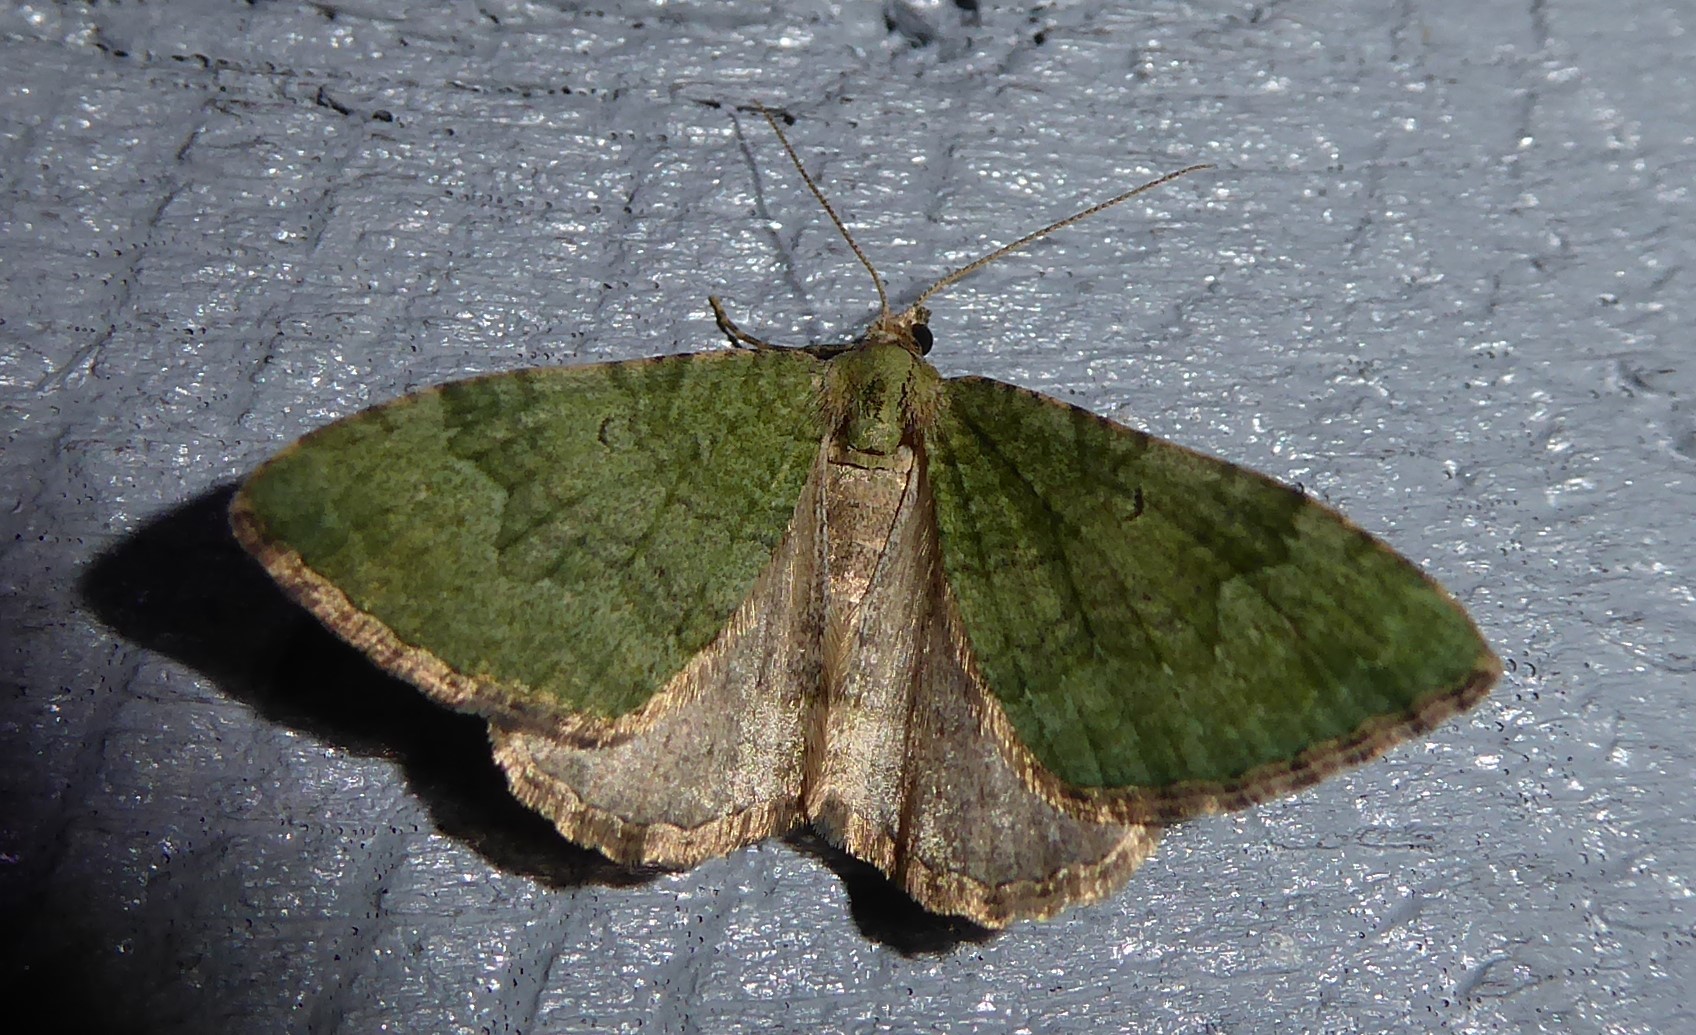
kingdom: Animalia
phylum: Arthropoda
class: Insecta
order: Lepidoptera
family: Geometridae
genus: Epyaxa
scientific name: Epyaxa rosearia
